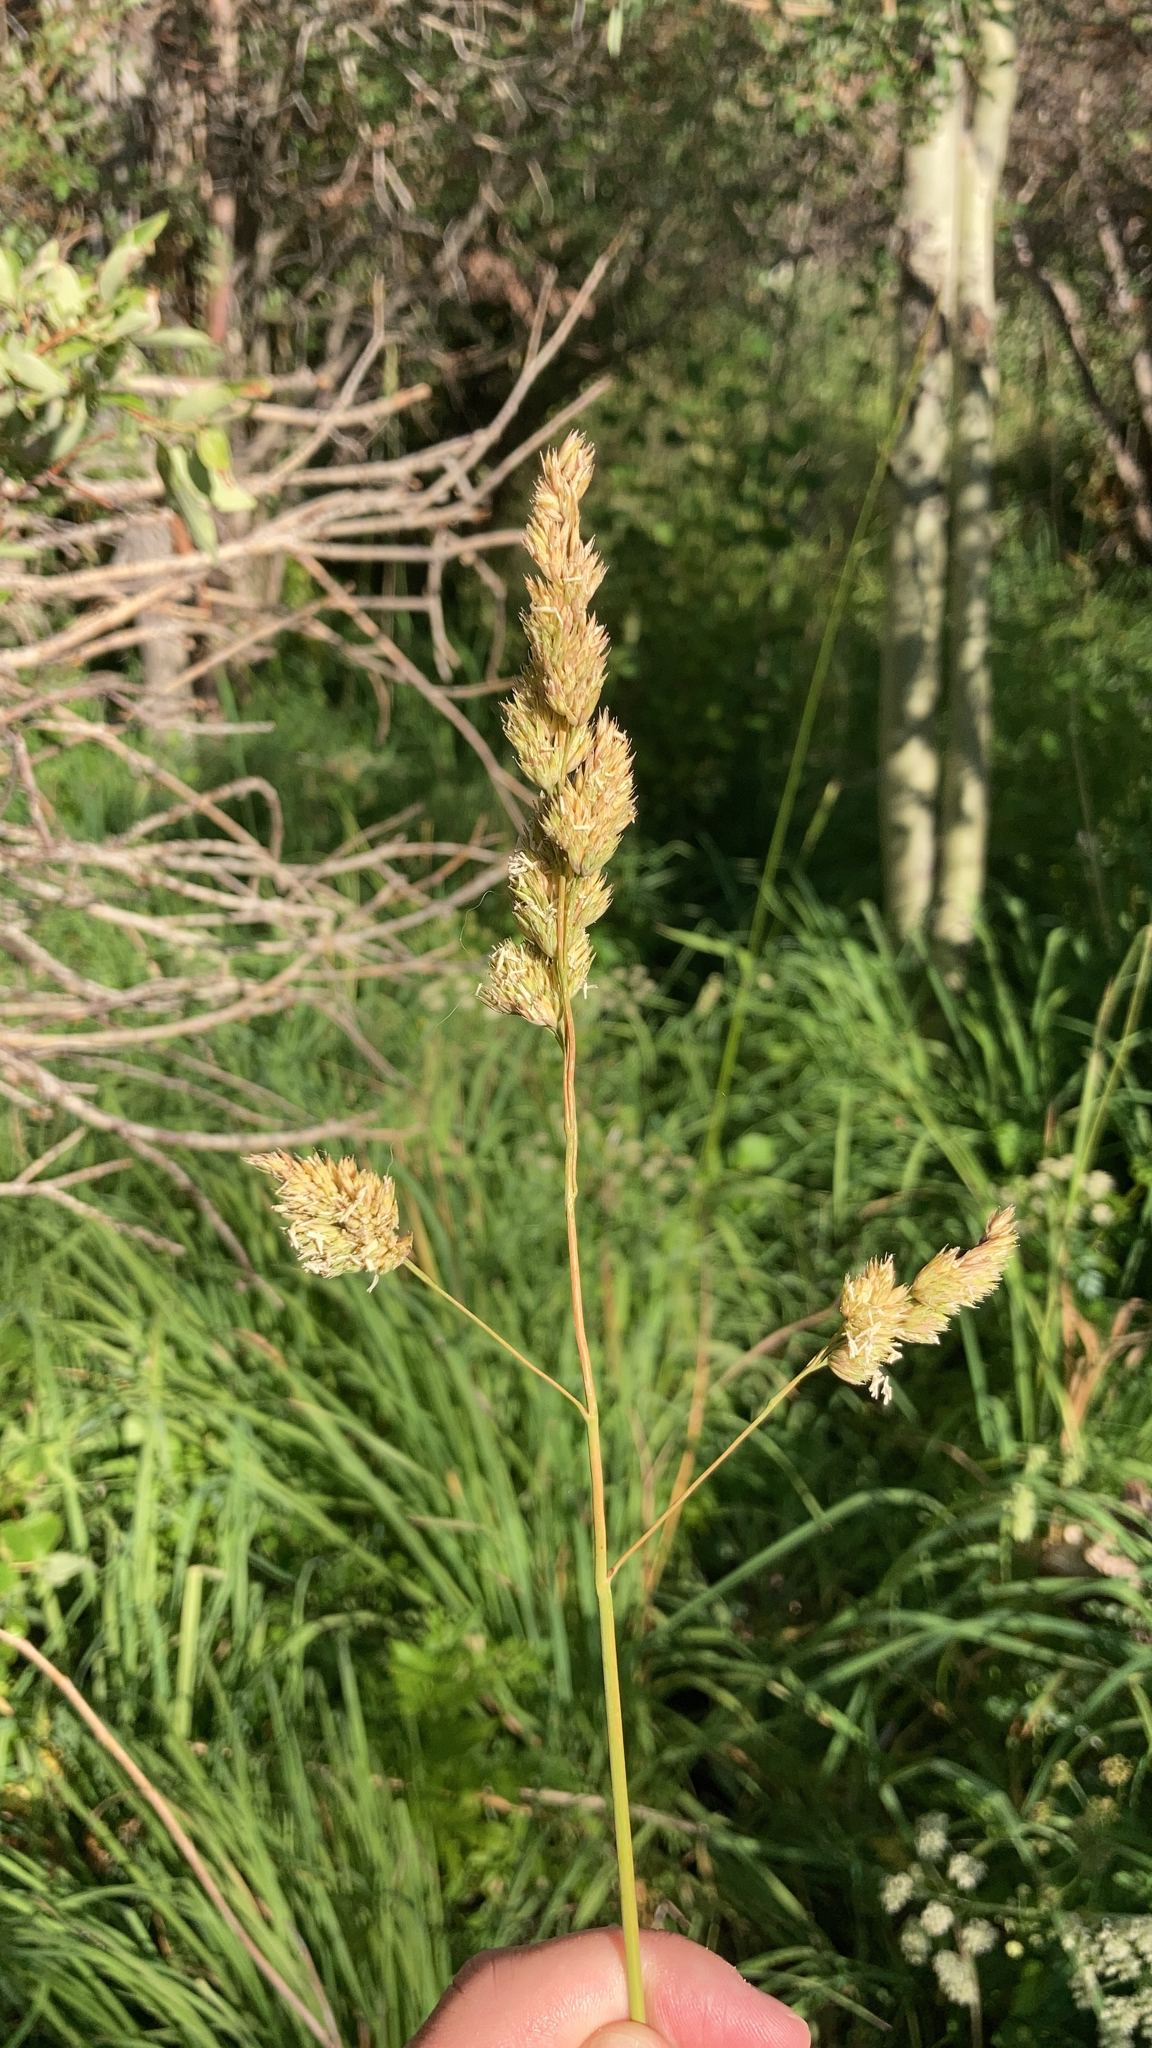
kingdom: Plantae
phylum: Tracheophyta
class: Liliopsida
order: Poales
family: Poaceae
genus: Dactylis
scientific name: Dactylis glomerata
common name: Orchardgrass
